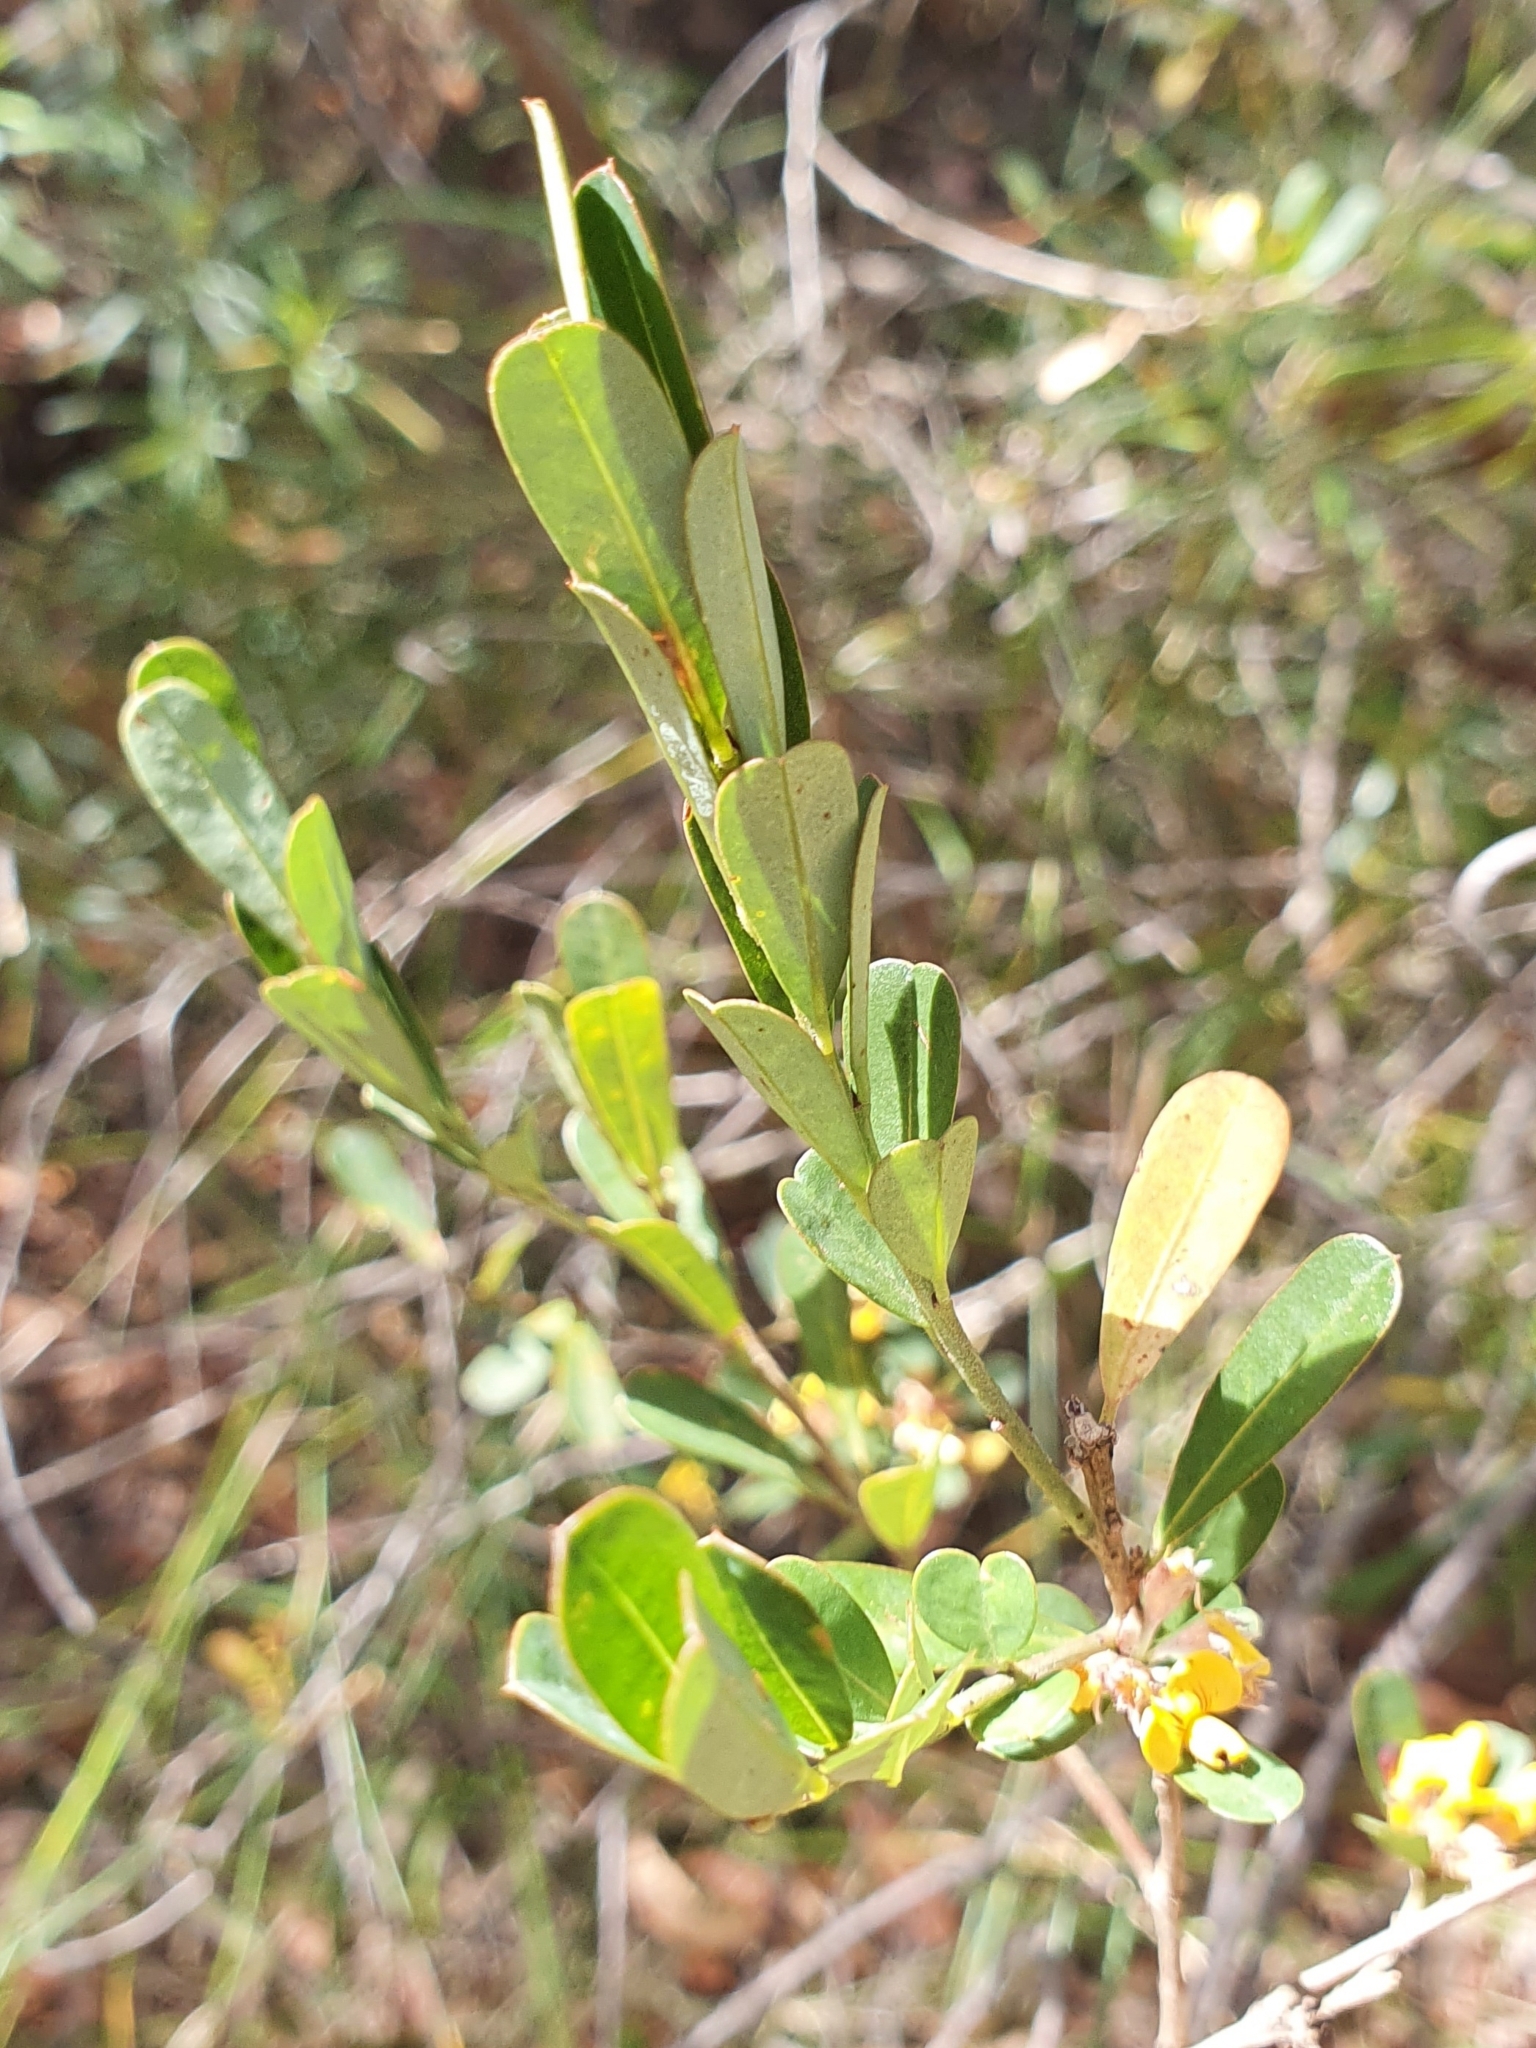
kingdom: Plantae
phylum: Tracheophyta
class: Magnoliopsida
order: Fabales
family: Fabaceae
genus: Pultenaea
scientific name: Pultenaea daphnoides
